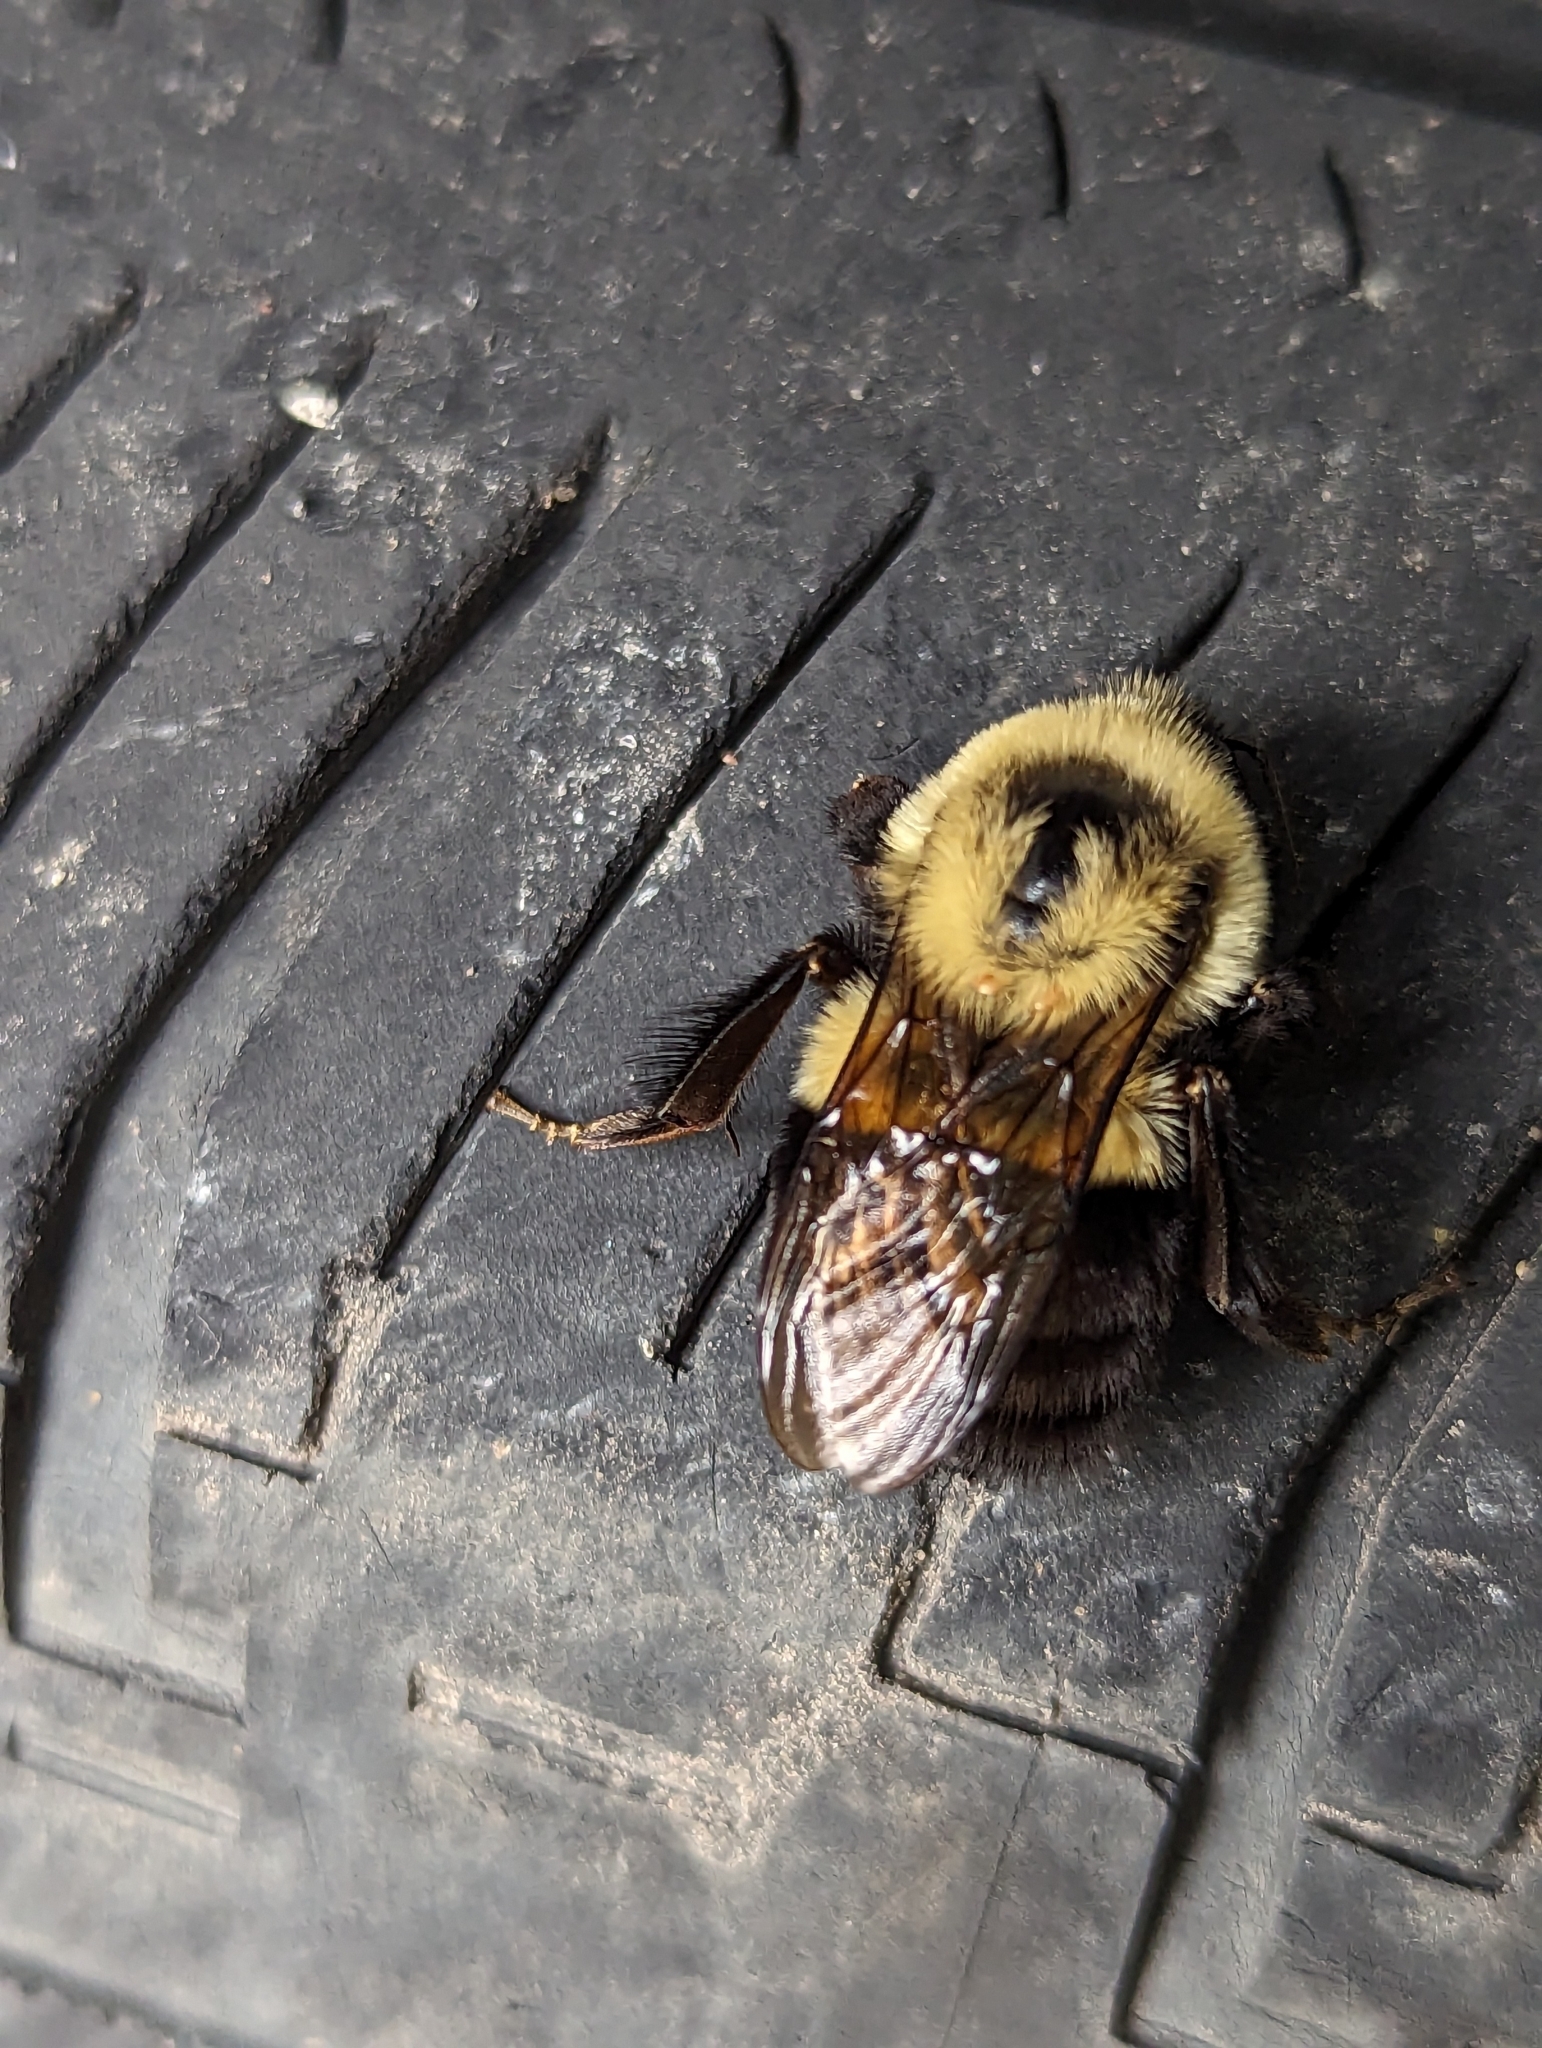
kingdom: Animalia
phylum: Arthropoda
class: Insecta
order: Hymenoptera
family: Apidae
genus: Bombus
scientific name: Bombus impatiens
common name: Common eastern bumble bee
